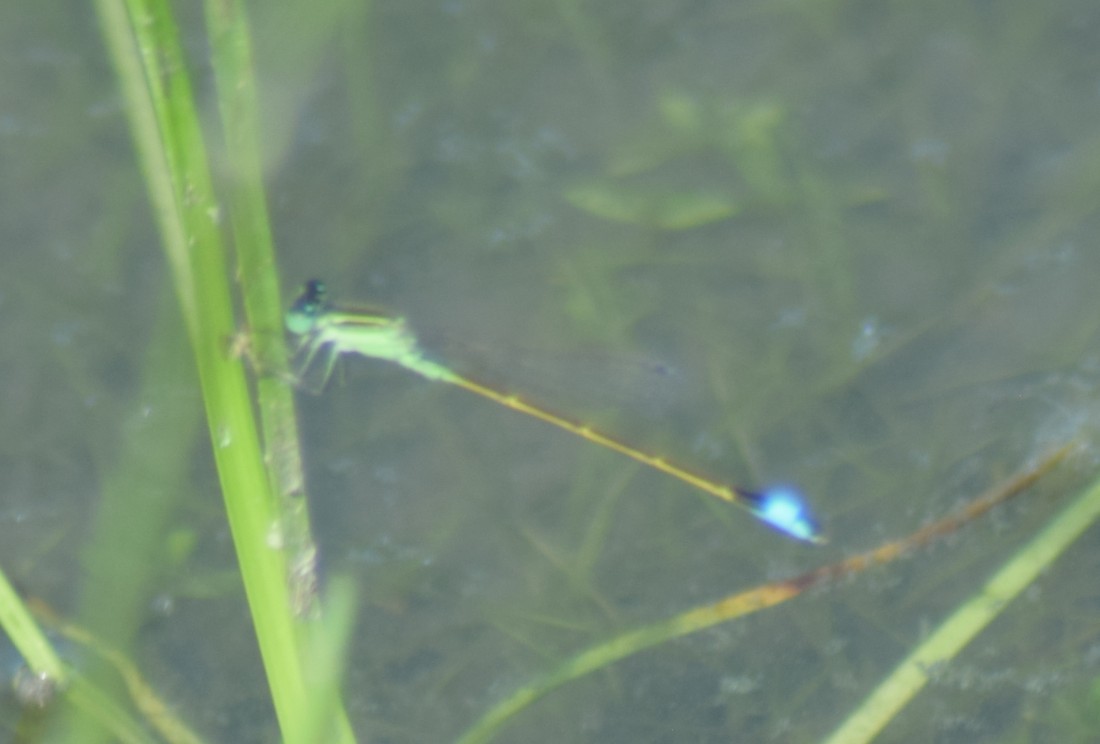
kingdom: Animalia
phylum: Arthropoda
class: Insecta
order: Odonata
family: Coenagrionidae
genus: Ischnura
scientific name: Ischnura ramburii
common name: Rambur's forktail
